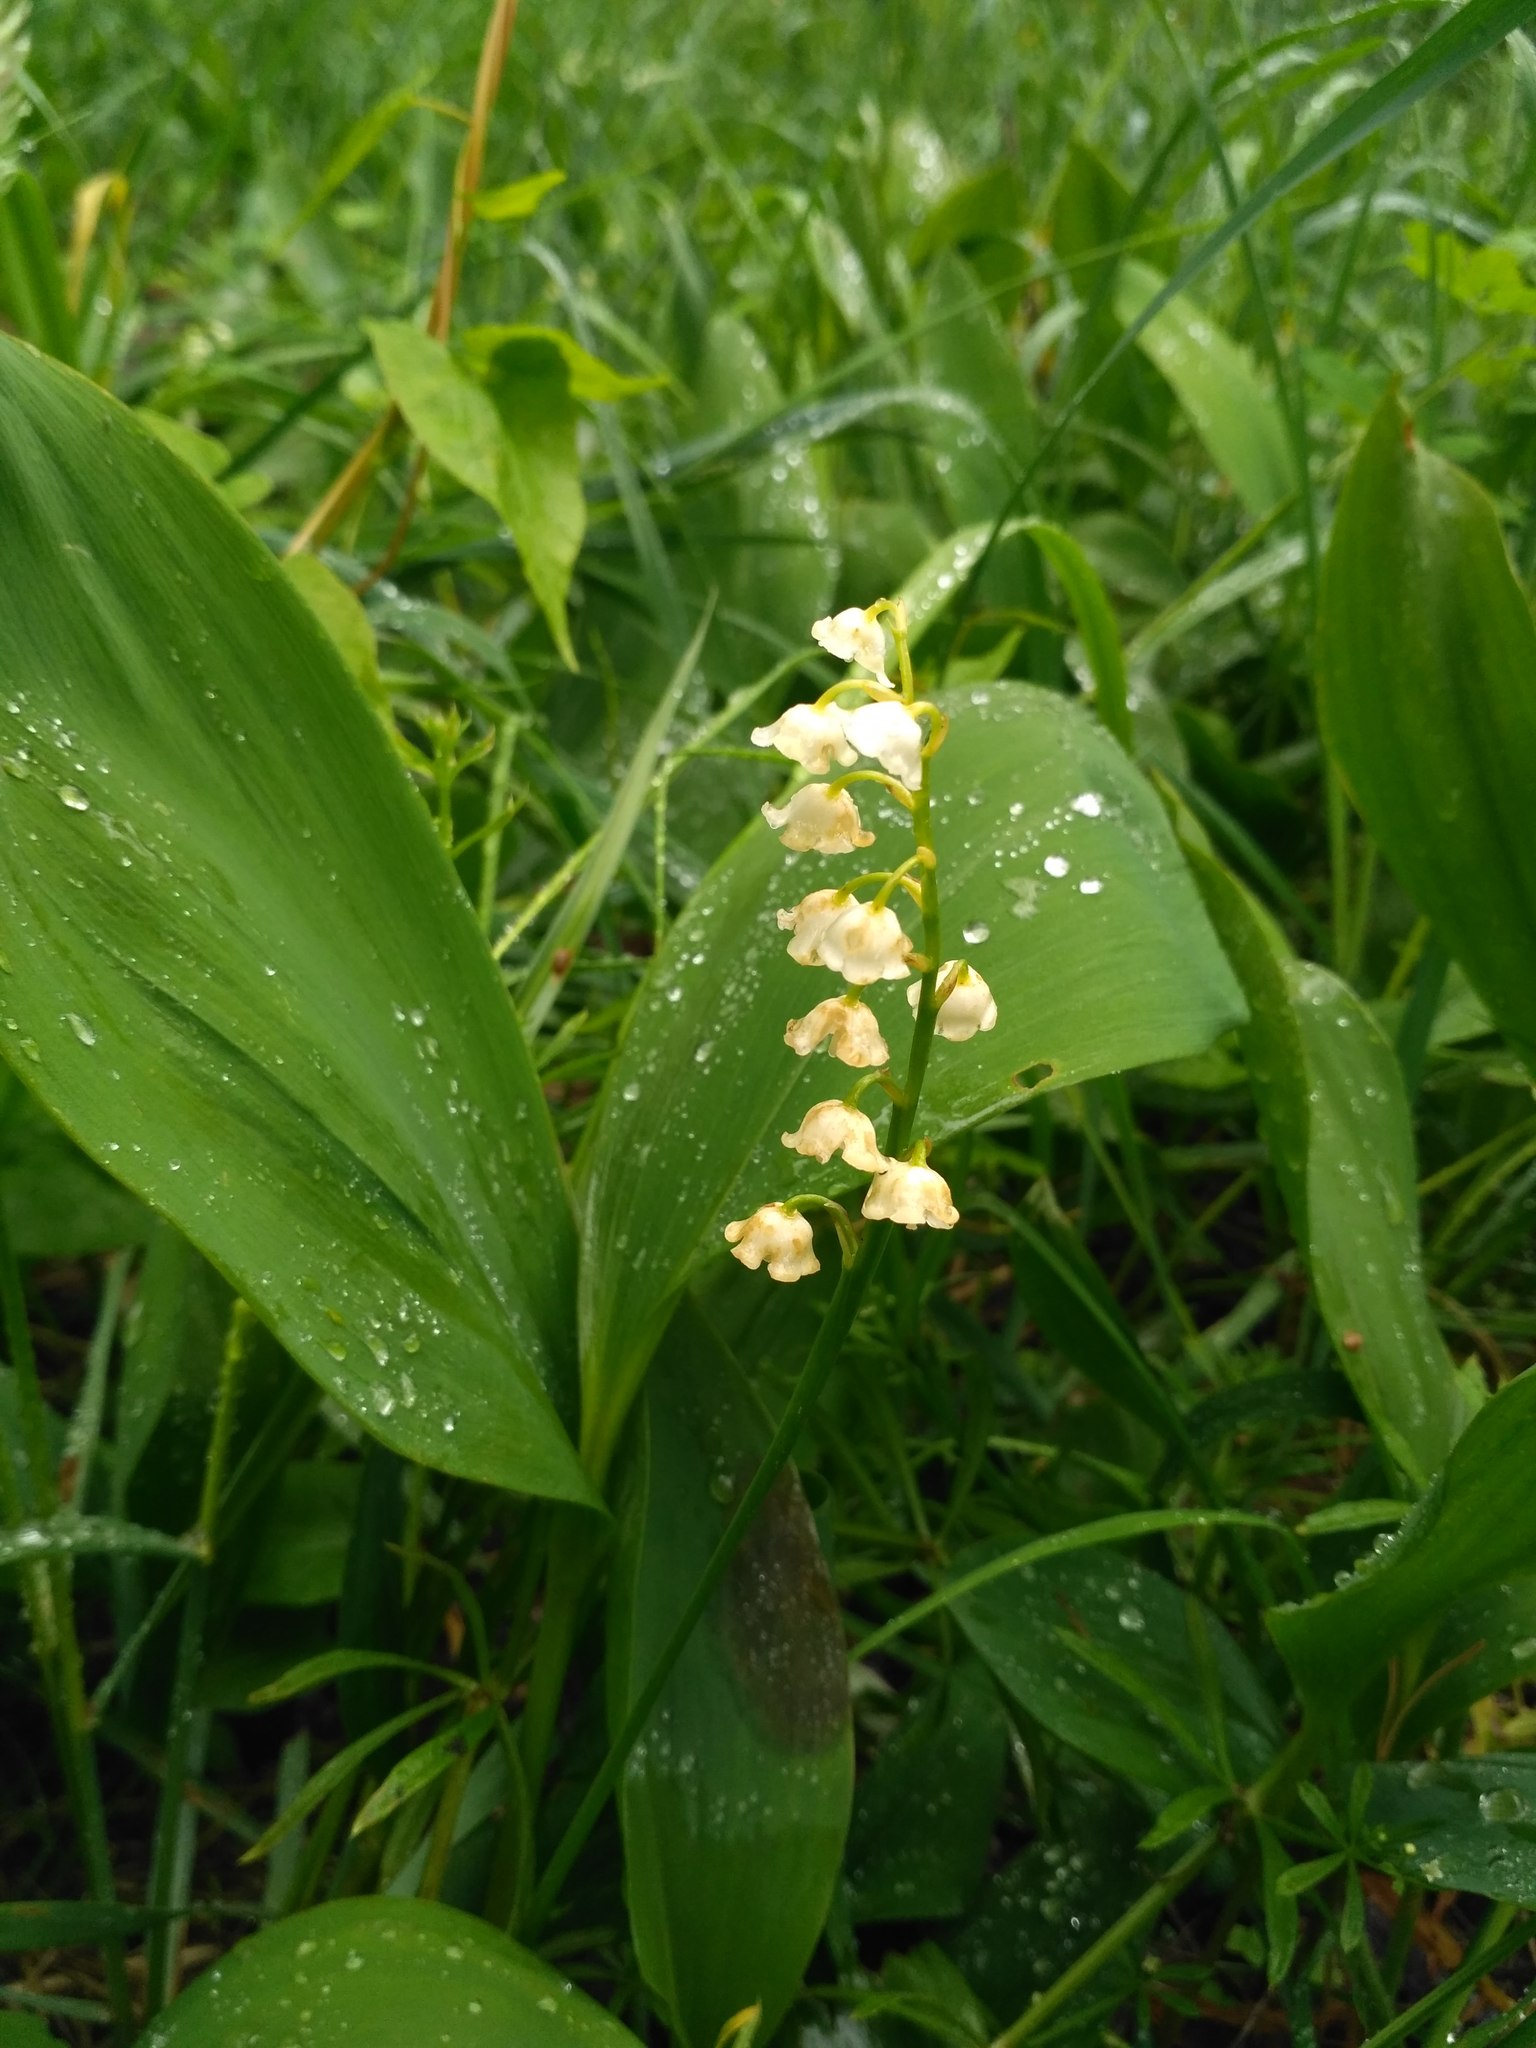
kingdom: Plantae
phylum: Tracheophyta
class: Liliopsida
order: Asparagales
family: Asparagaceae
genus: Convallaria
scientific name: Convallaria majalis
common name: Lily-of-the-valley
